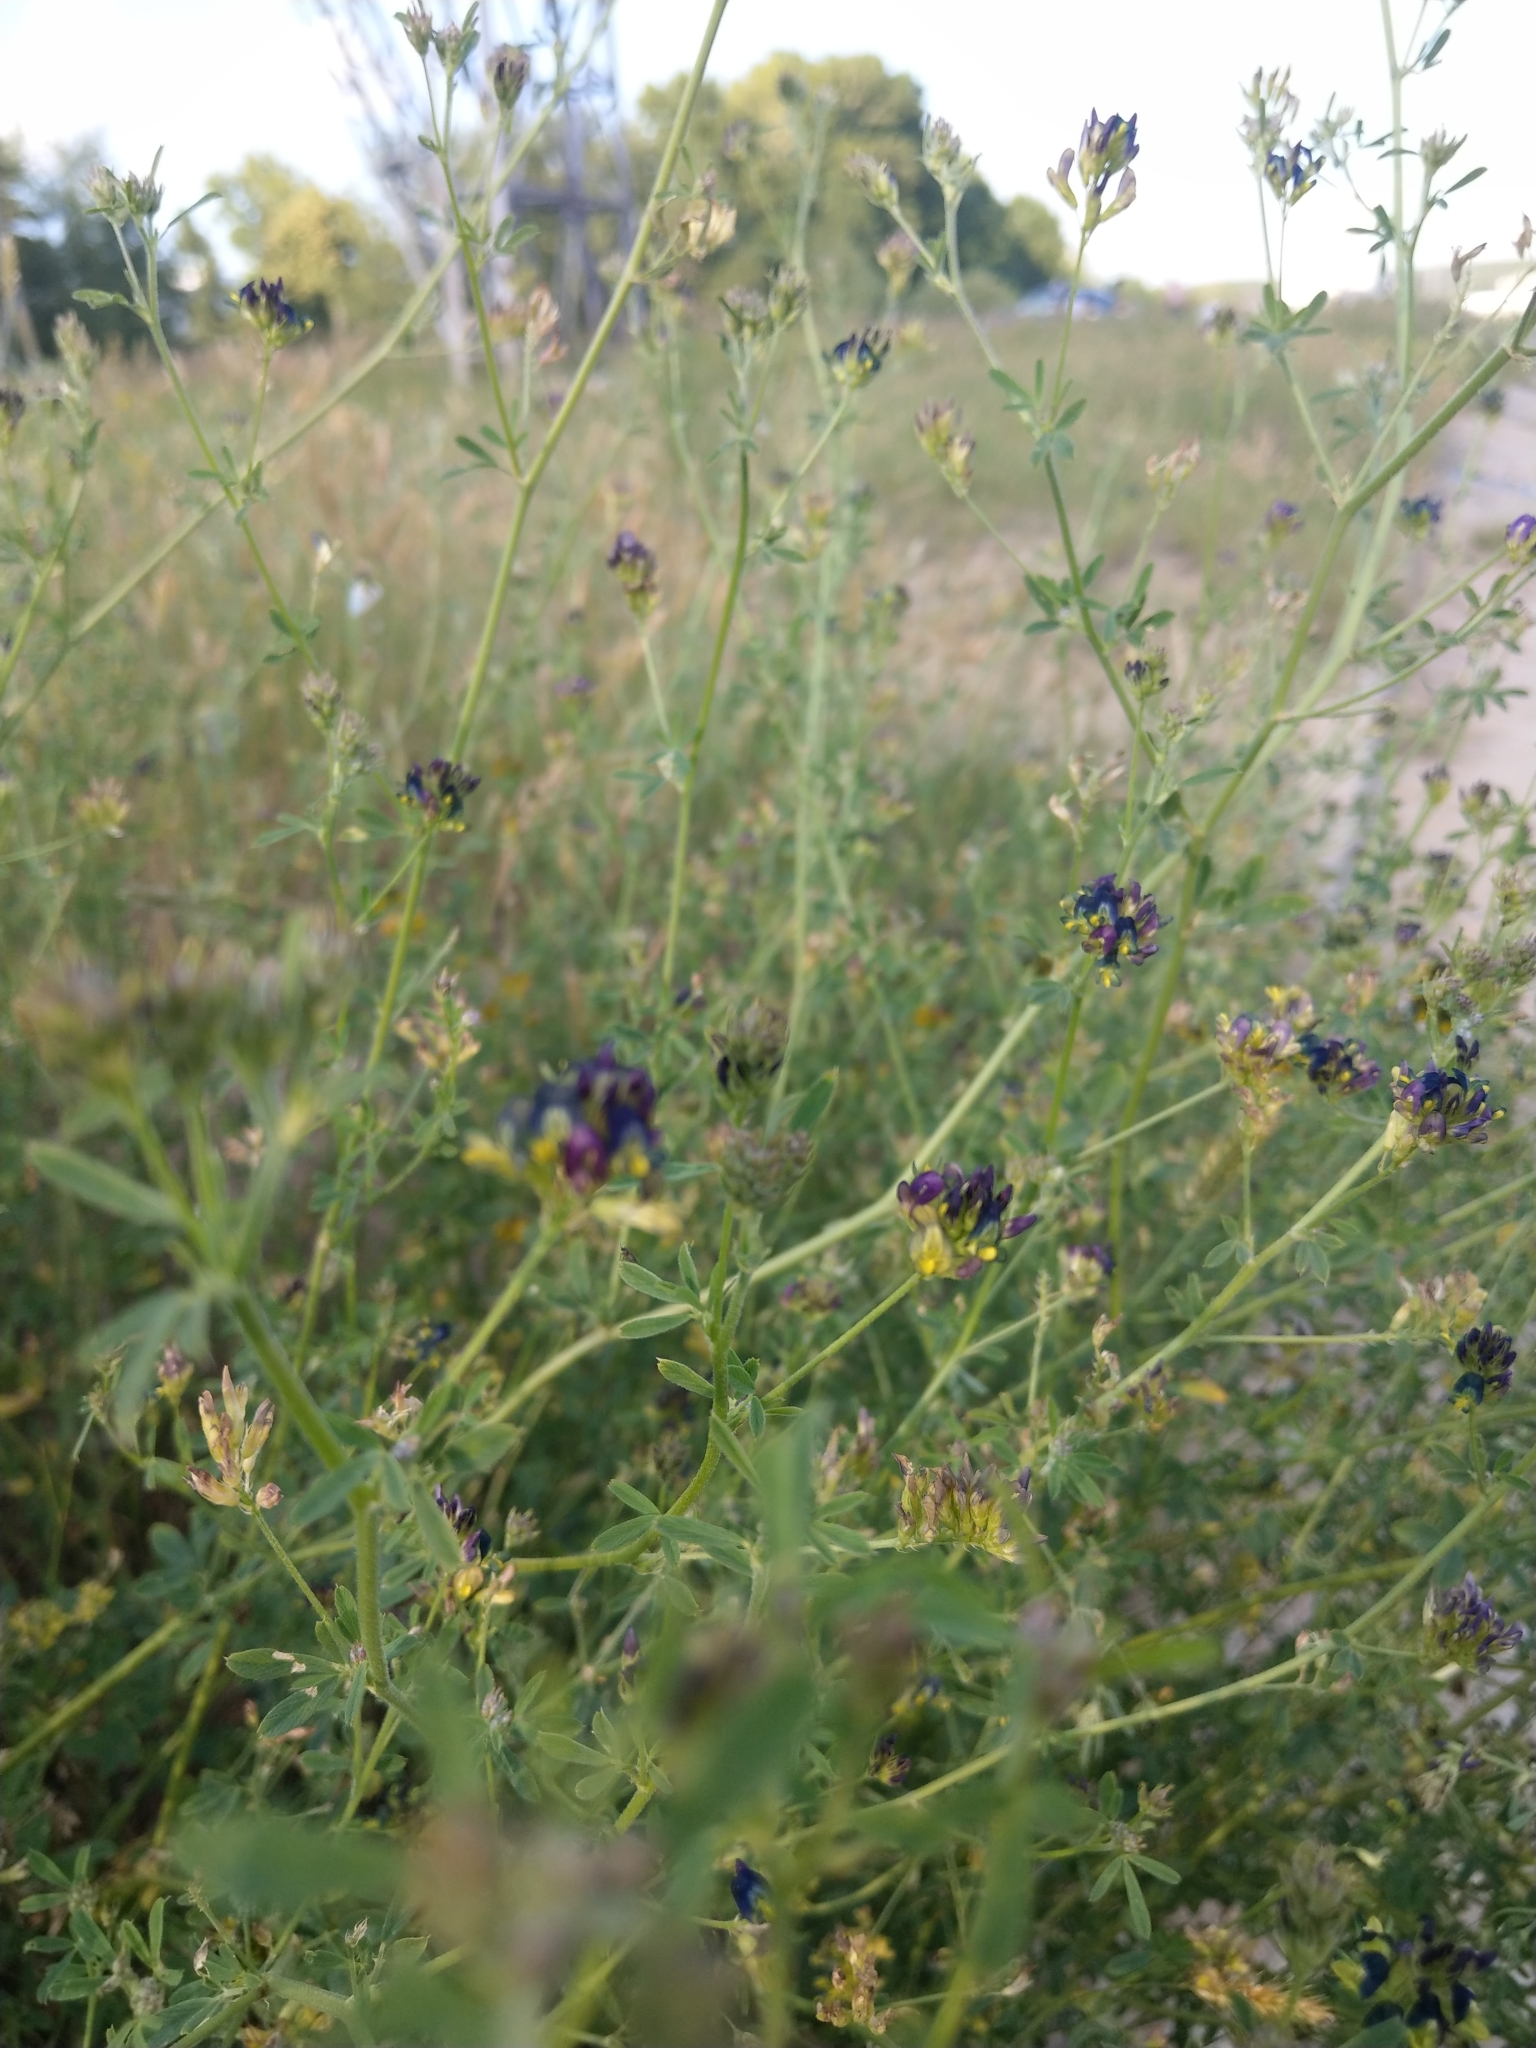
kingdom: Plantae
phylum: Tracheophyta
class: Magnoliopsida
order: Fabales
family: Fabaceae
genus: Medicago
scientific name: Medicago varia
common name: Sand lucerne
